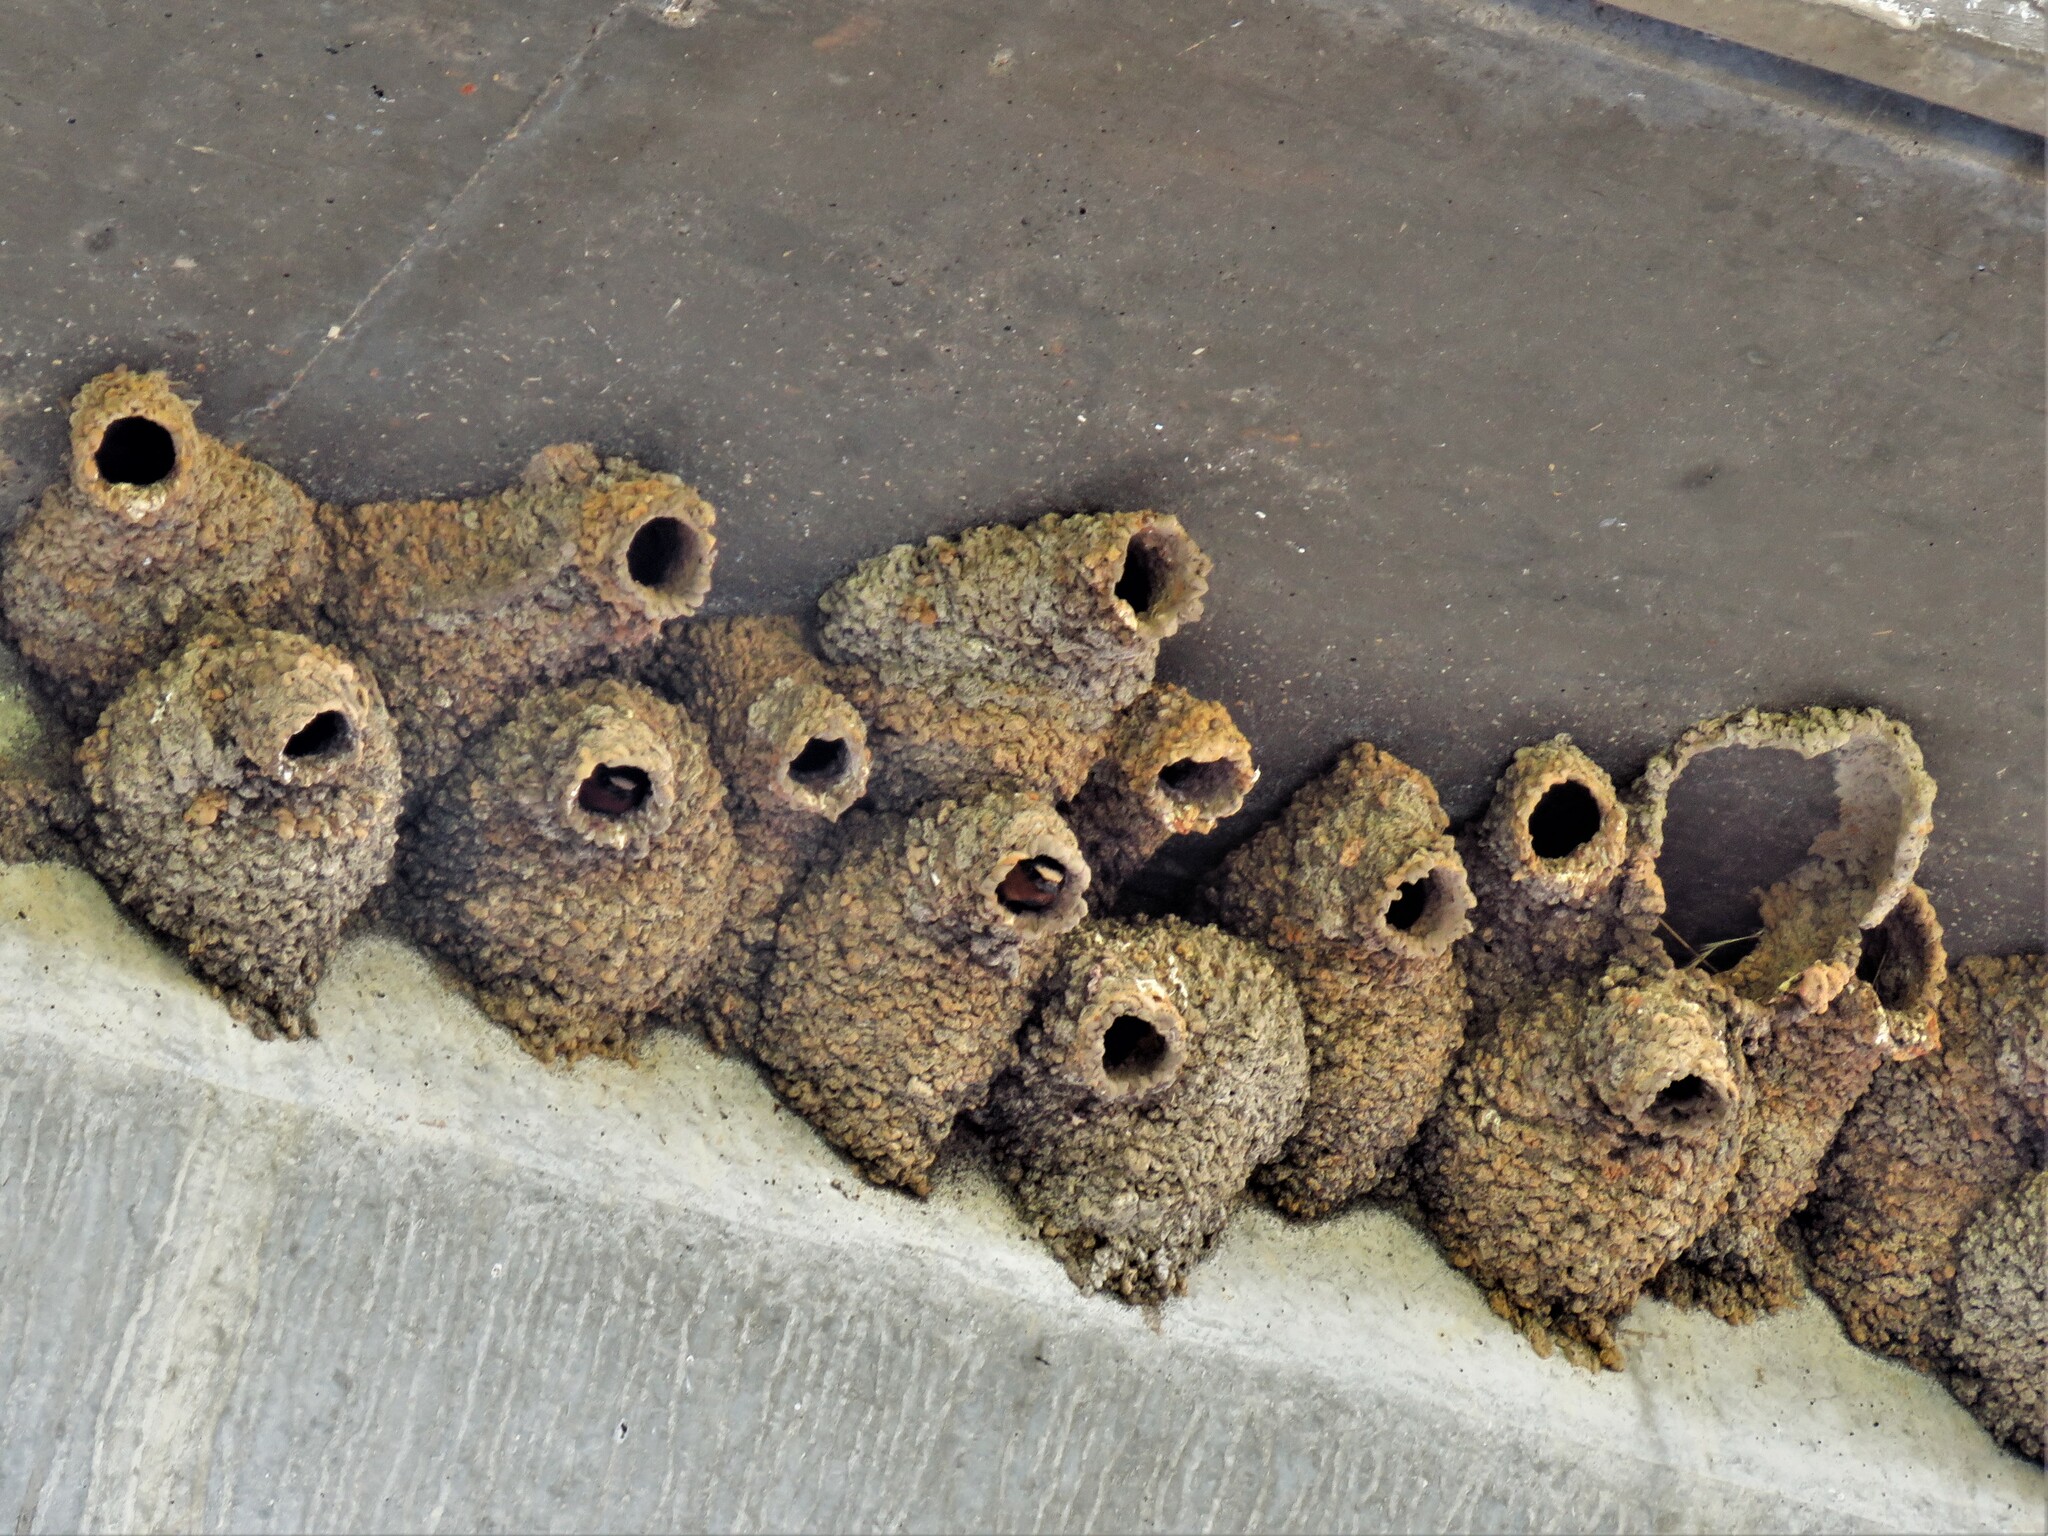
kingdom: Animalia
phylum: Chordata
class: Aves
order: Passeriformes
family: Hirundinidae
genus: Petrochelidon
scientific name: Petrochelidon pyrrhonota
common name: American cliff swallow
